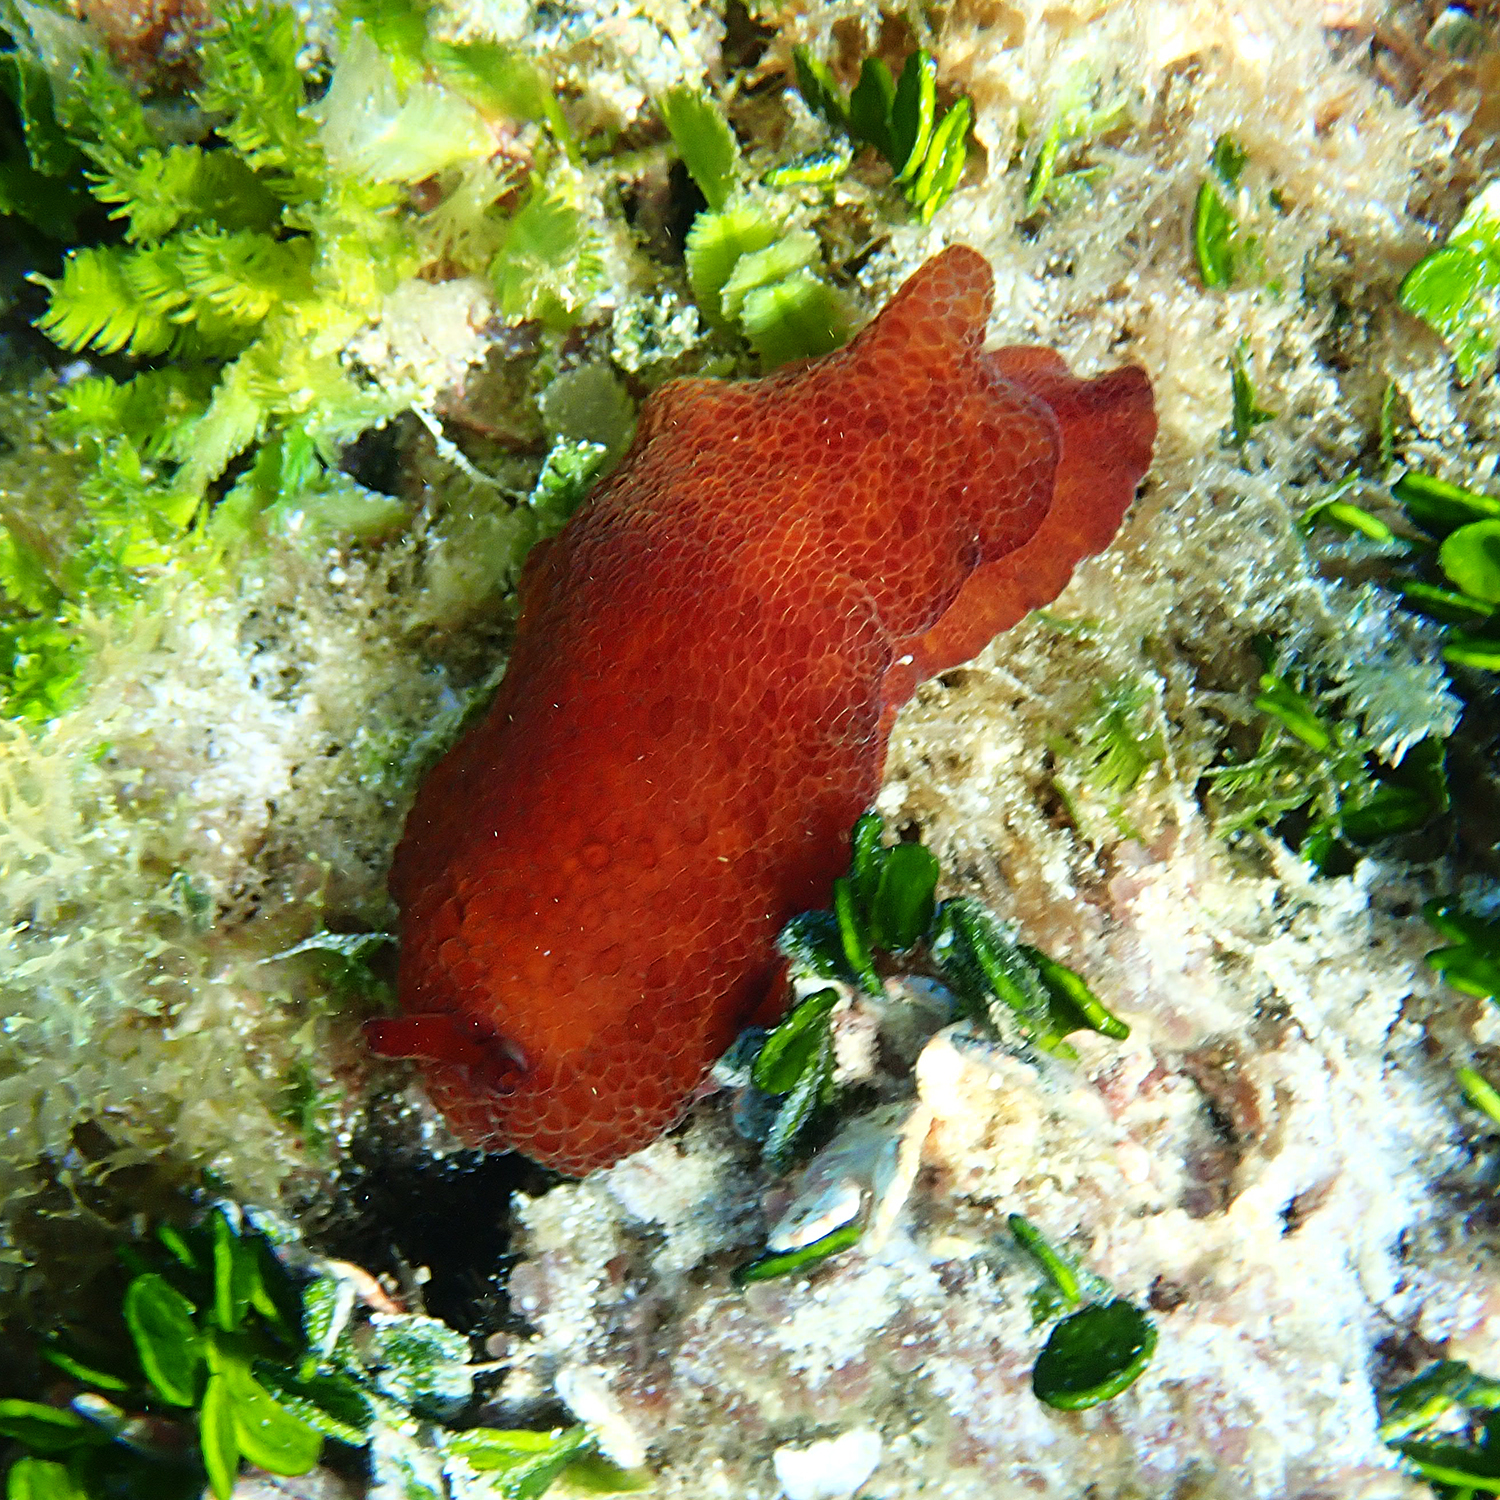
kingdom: Animalia
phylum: Mollusca
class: Gastropoda
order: Pleurobranchida
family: Pleurobranchidae
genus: Pleurobranchus
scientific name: Pleurobranchus peronii
